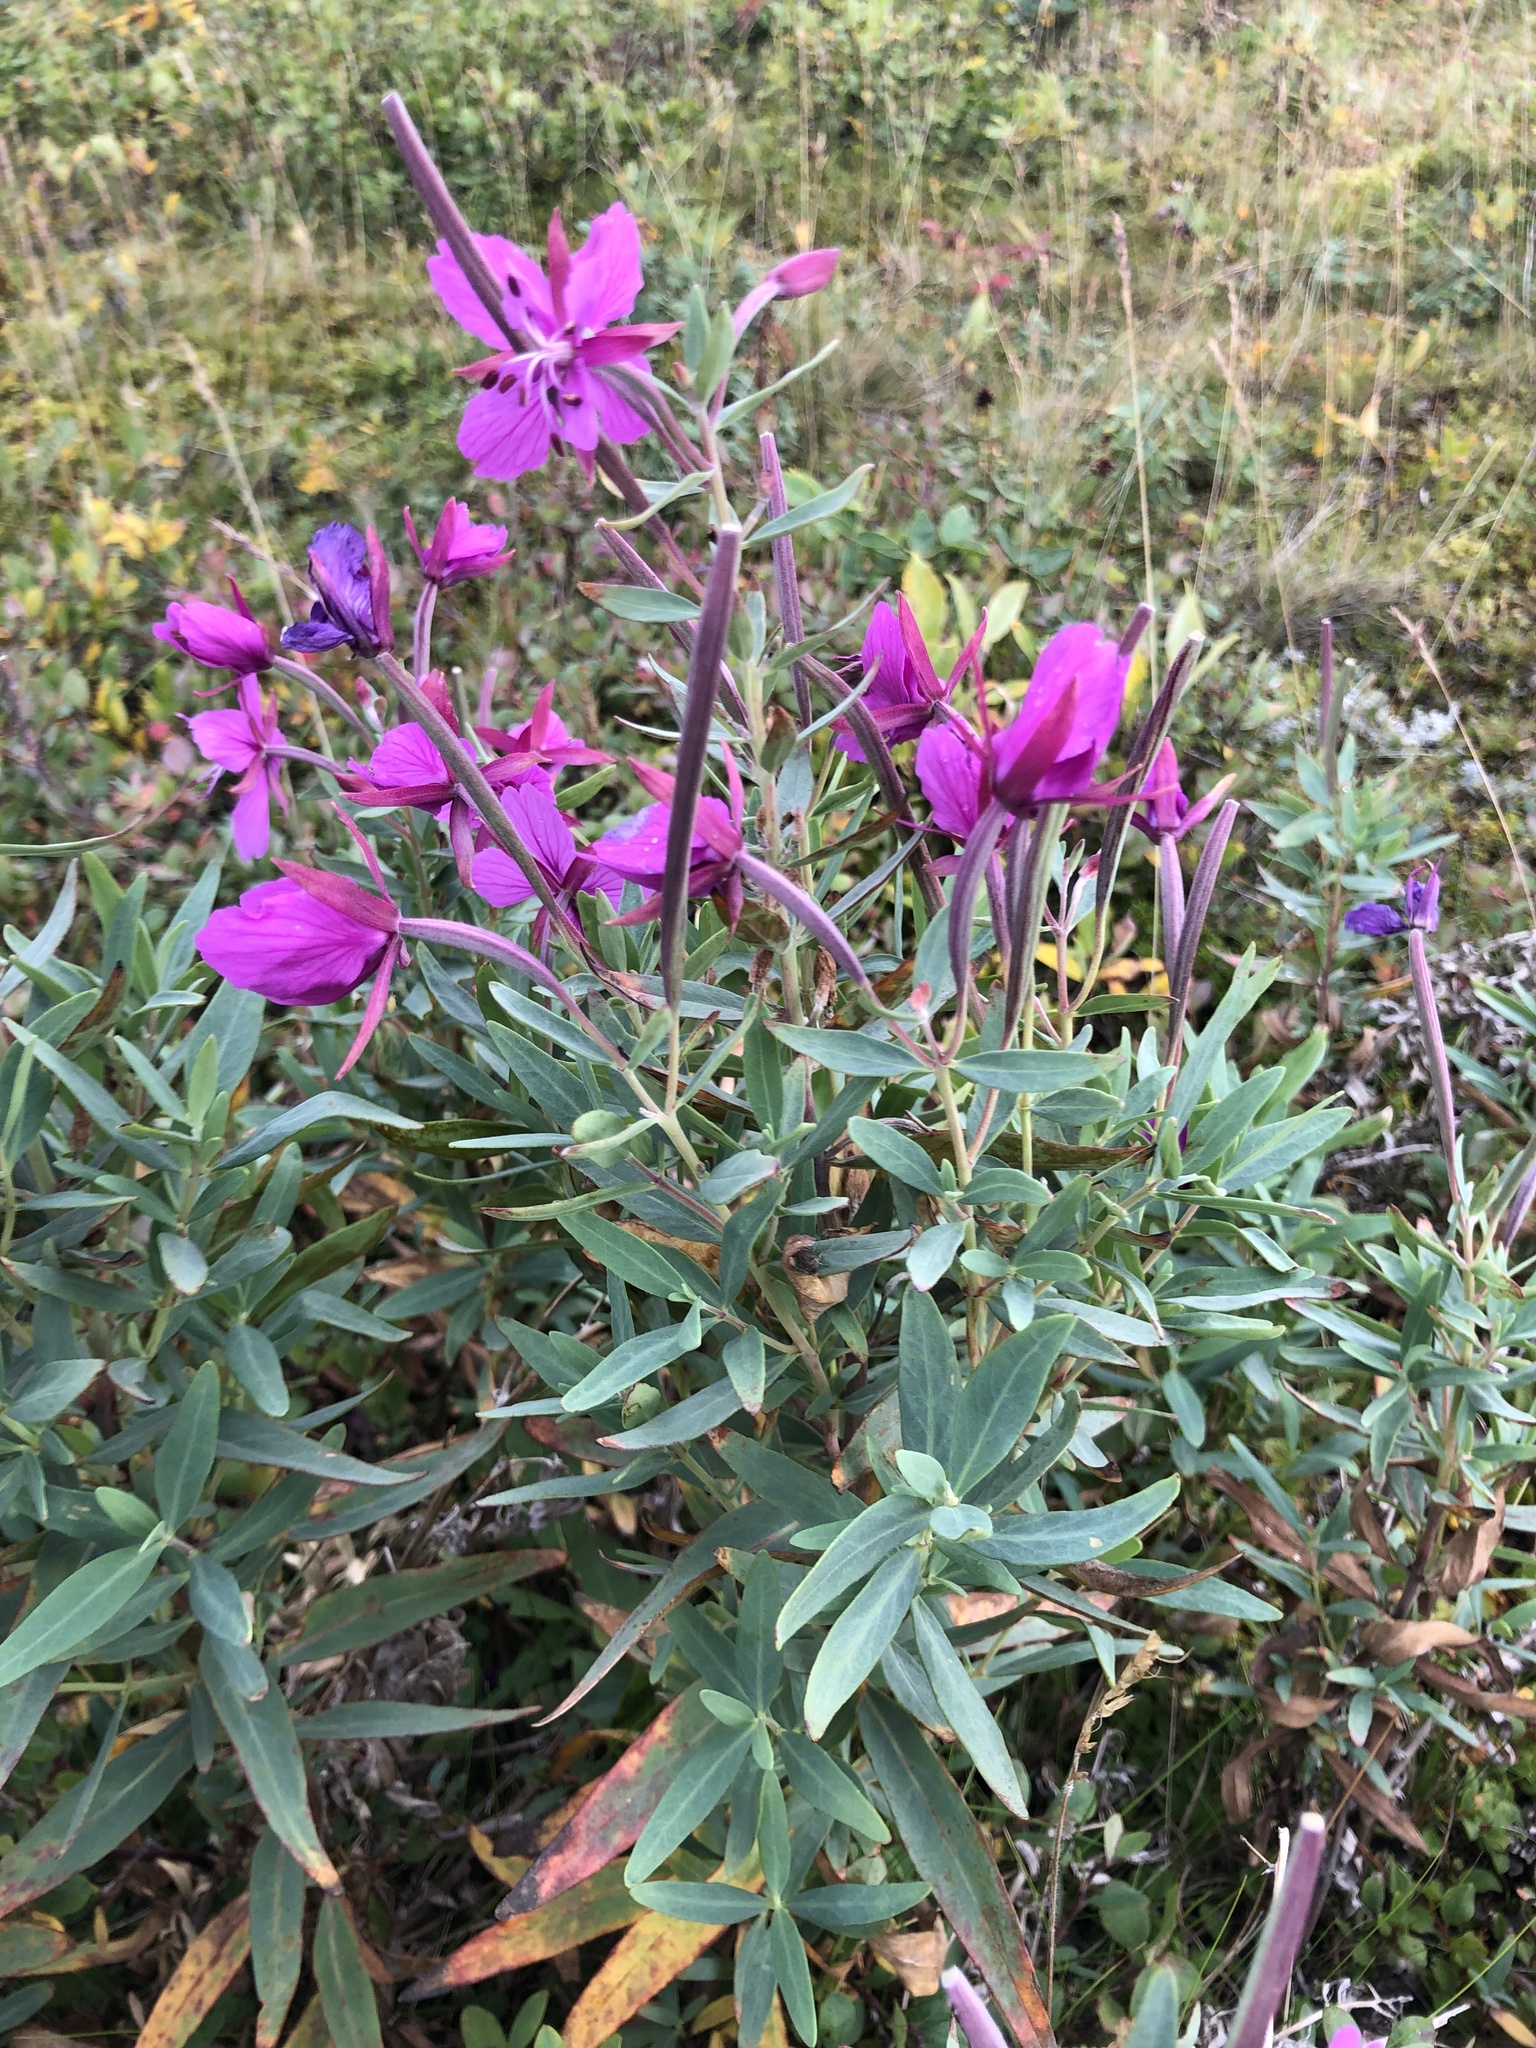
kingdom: Plantae
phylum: Tracheophyta
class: Magnoliopsida
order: Myrtales
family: Onagraceae
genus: Chamaenerion
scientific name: Chamaenerion latifolium
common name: Dwarf fireweed
